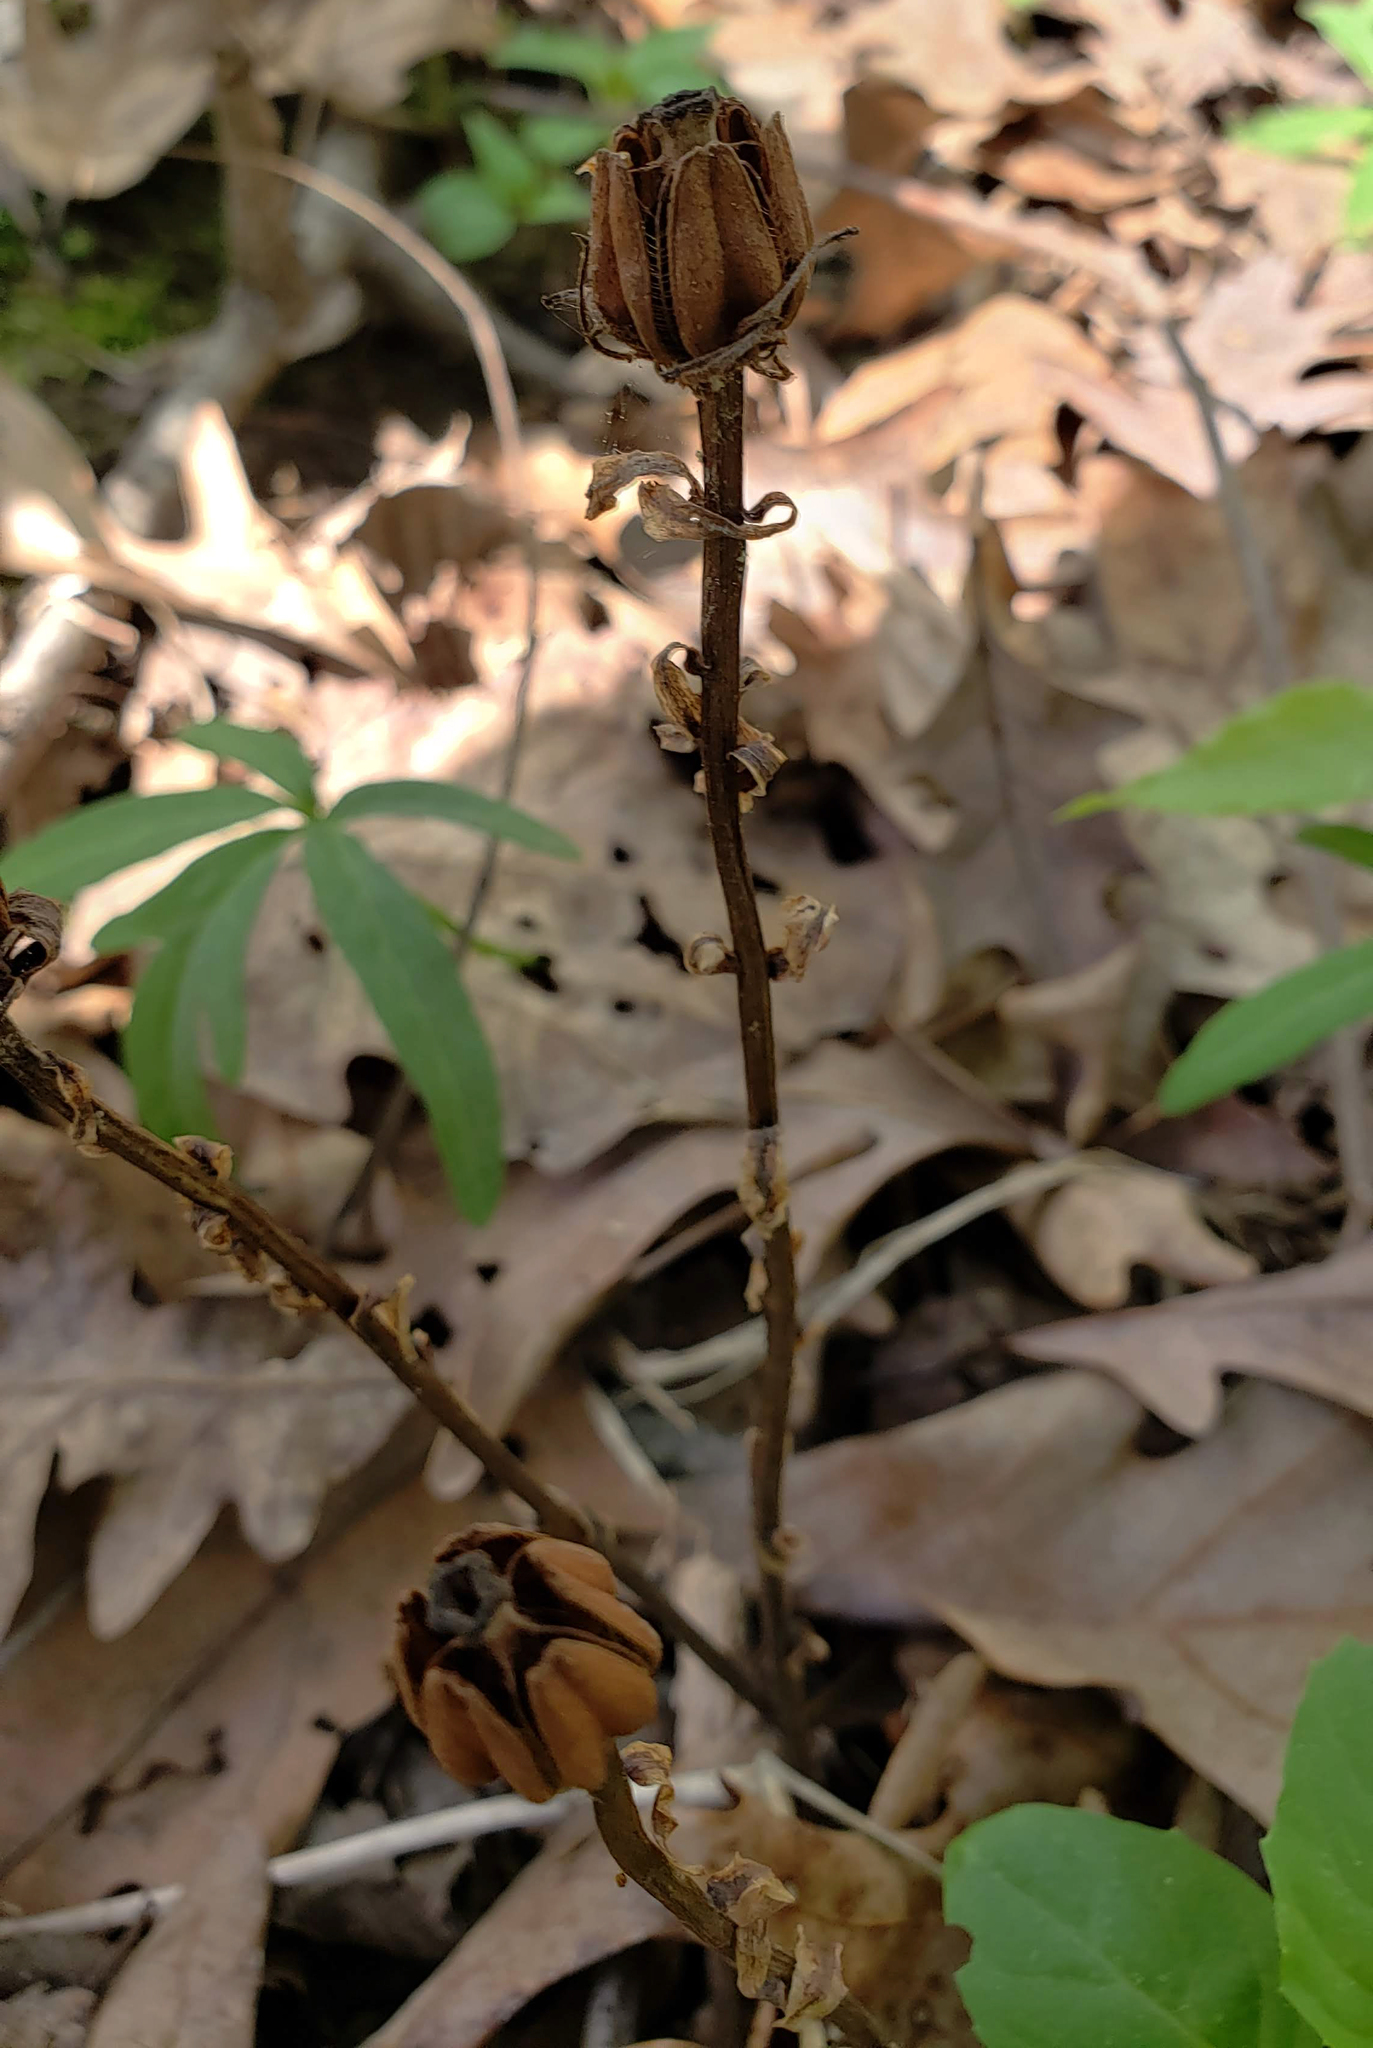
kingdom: Plantae
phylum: Tracheophyta
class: Magnoliopsida
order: Ericales
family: Ericaceae
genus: Monotropa
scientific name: Monotropa uniflora
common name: Convulsion root
